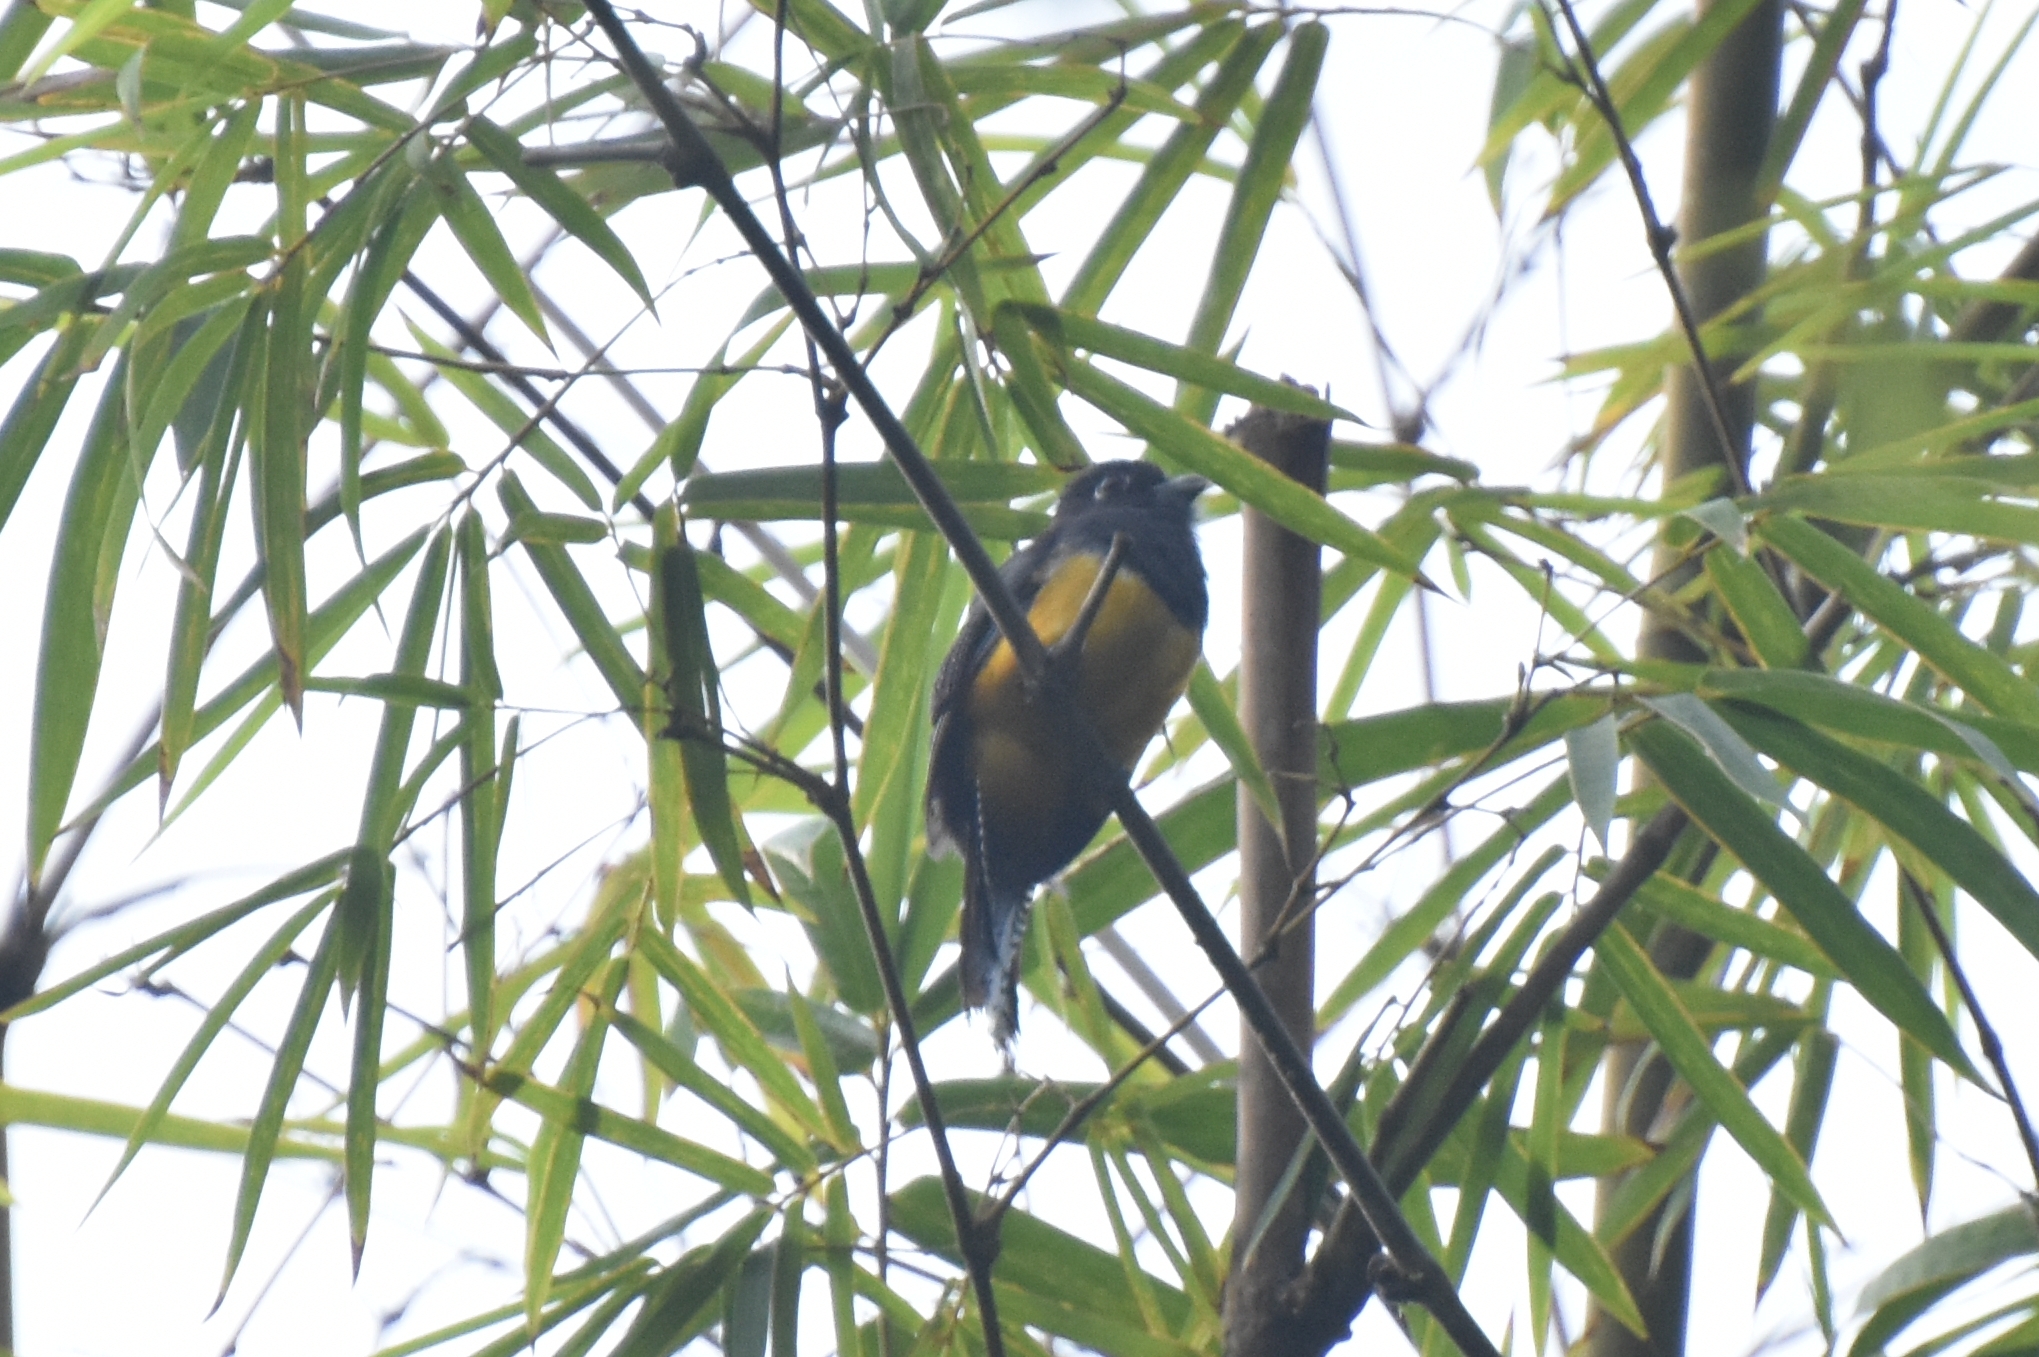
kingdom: Animalia
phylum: Chordata
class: Aves
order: Trogoniformes
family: Trogonidae
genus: Trogon
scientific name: Trogon violaceus
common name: Guianan trogon
